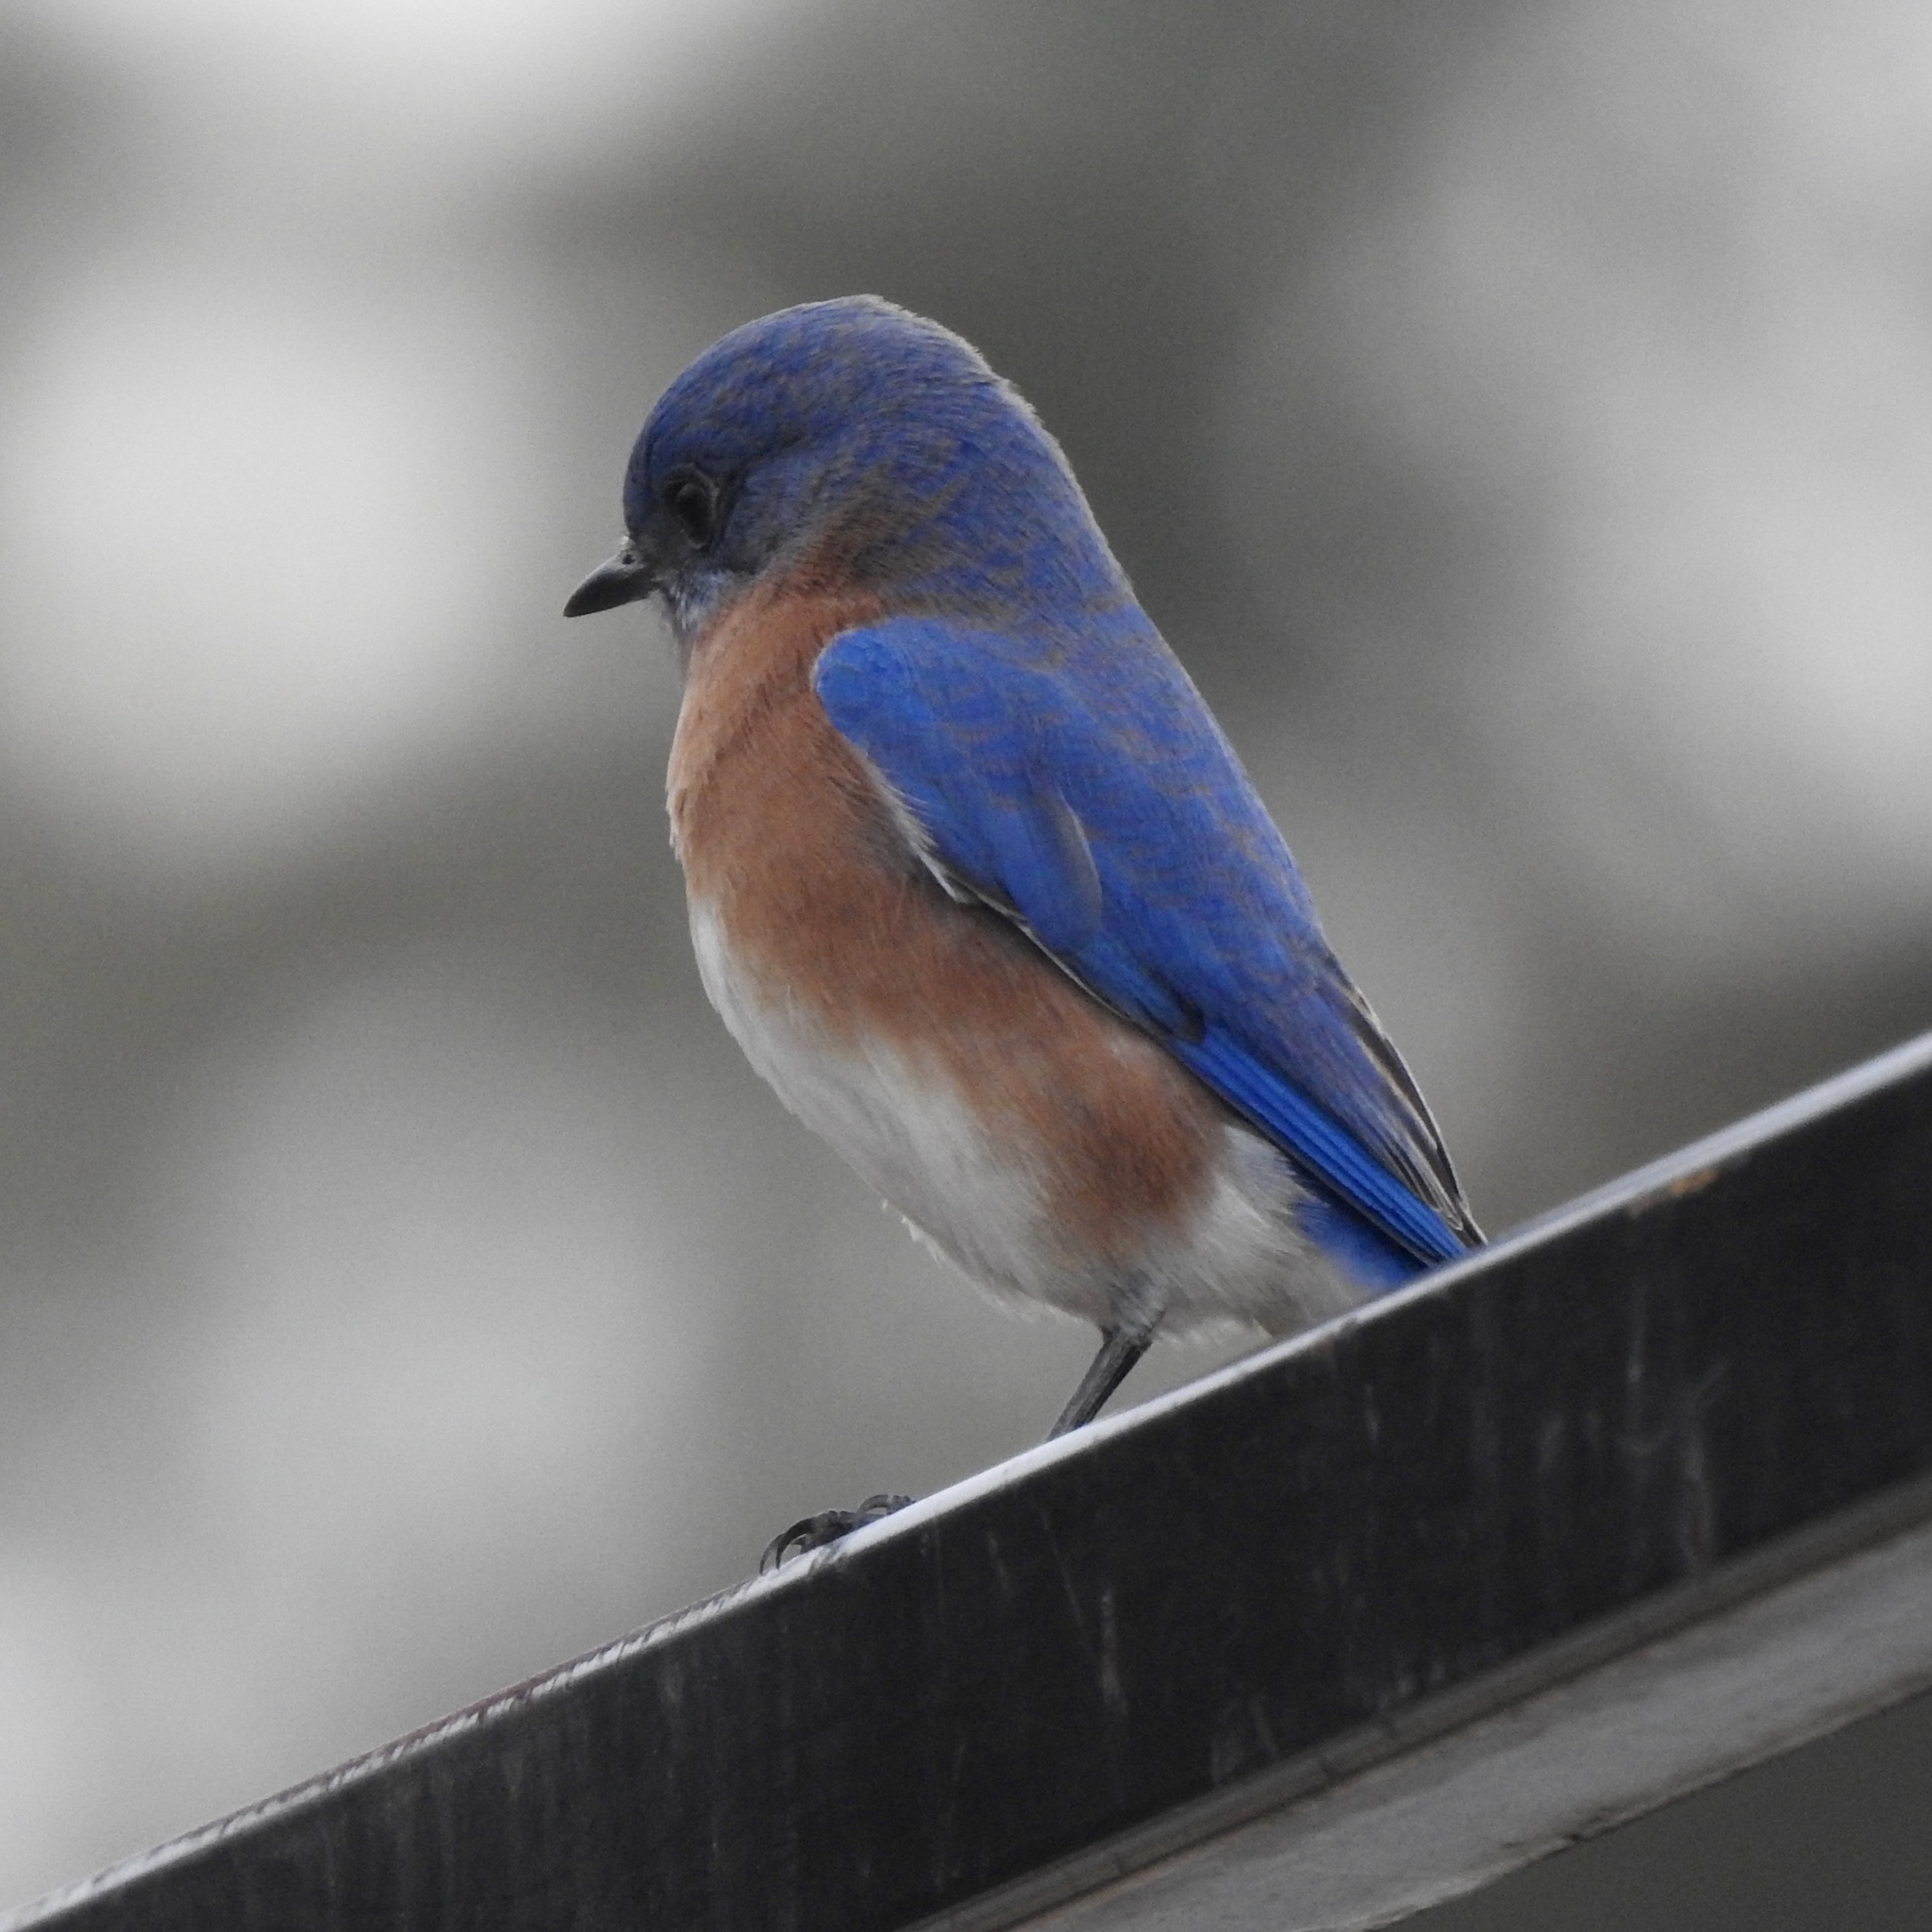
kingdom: Animalia
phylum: Chordata
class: Aves
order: Passeriformes
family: Turdidae
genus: Sialia
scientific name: Sialia sialis
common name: Eastern bluebird
